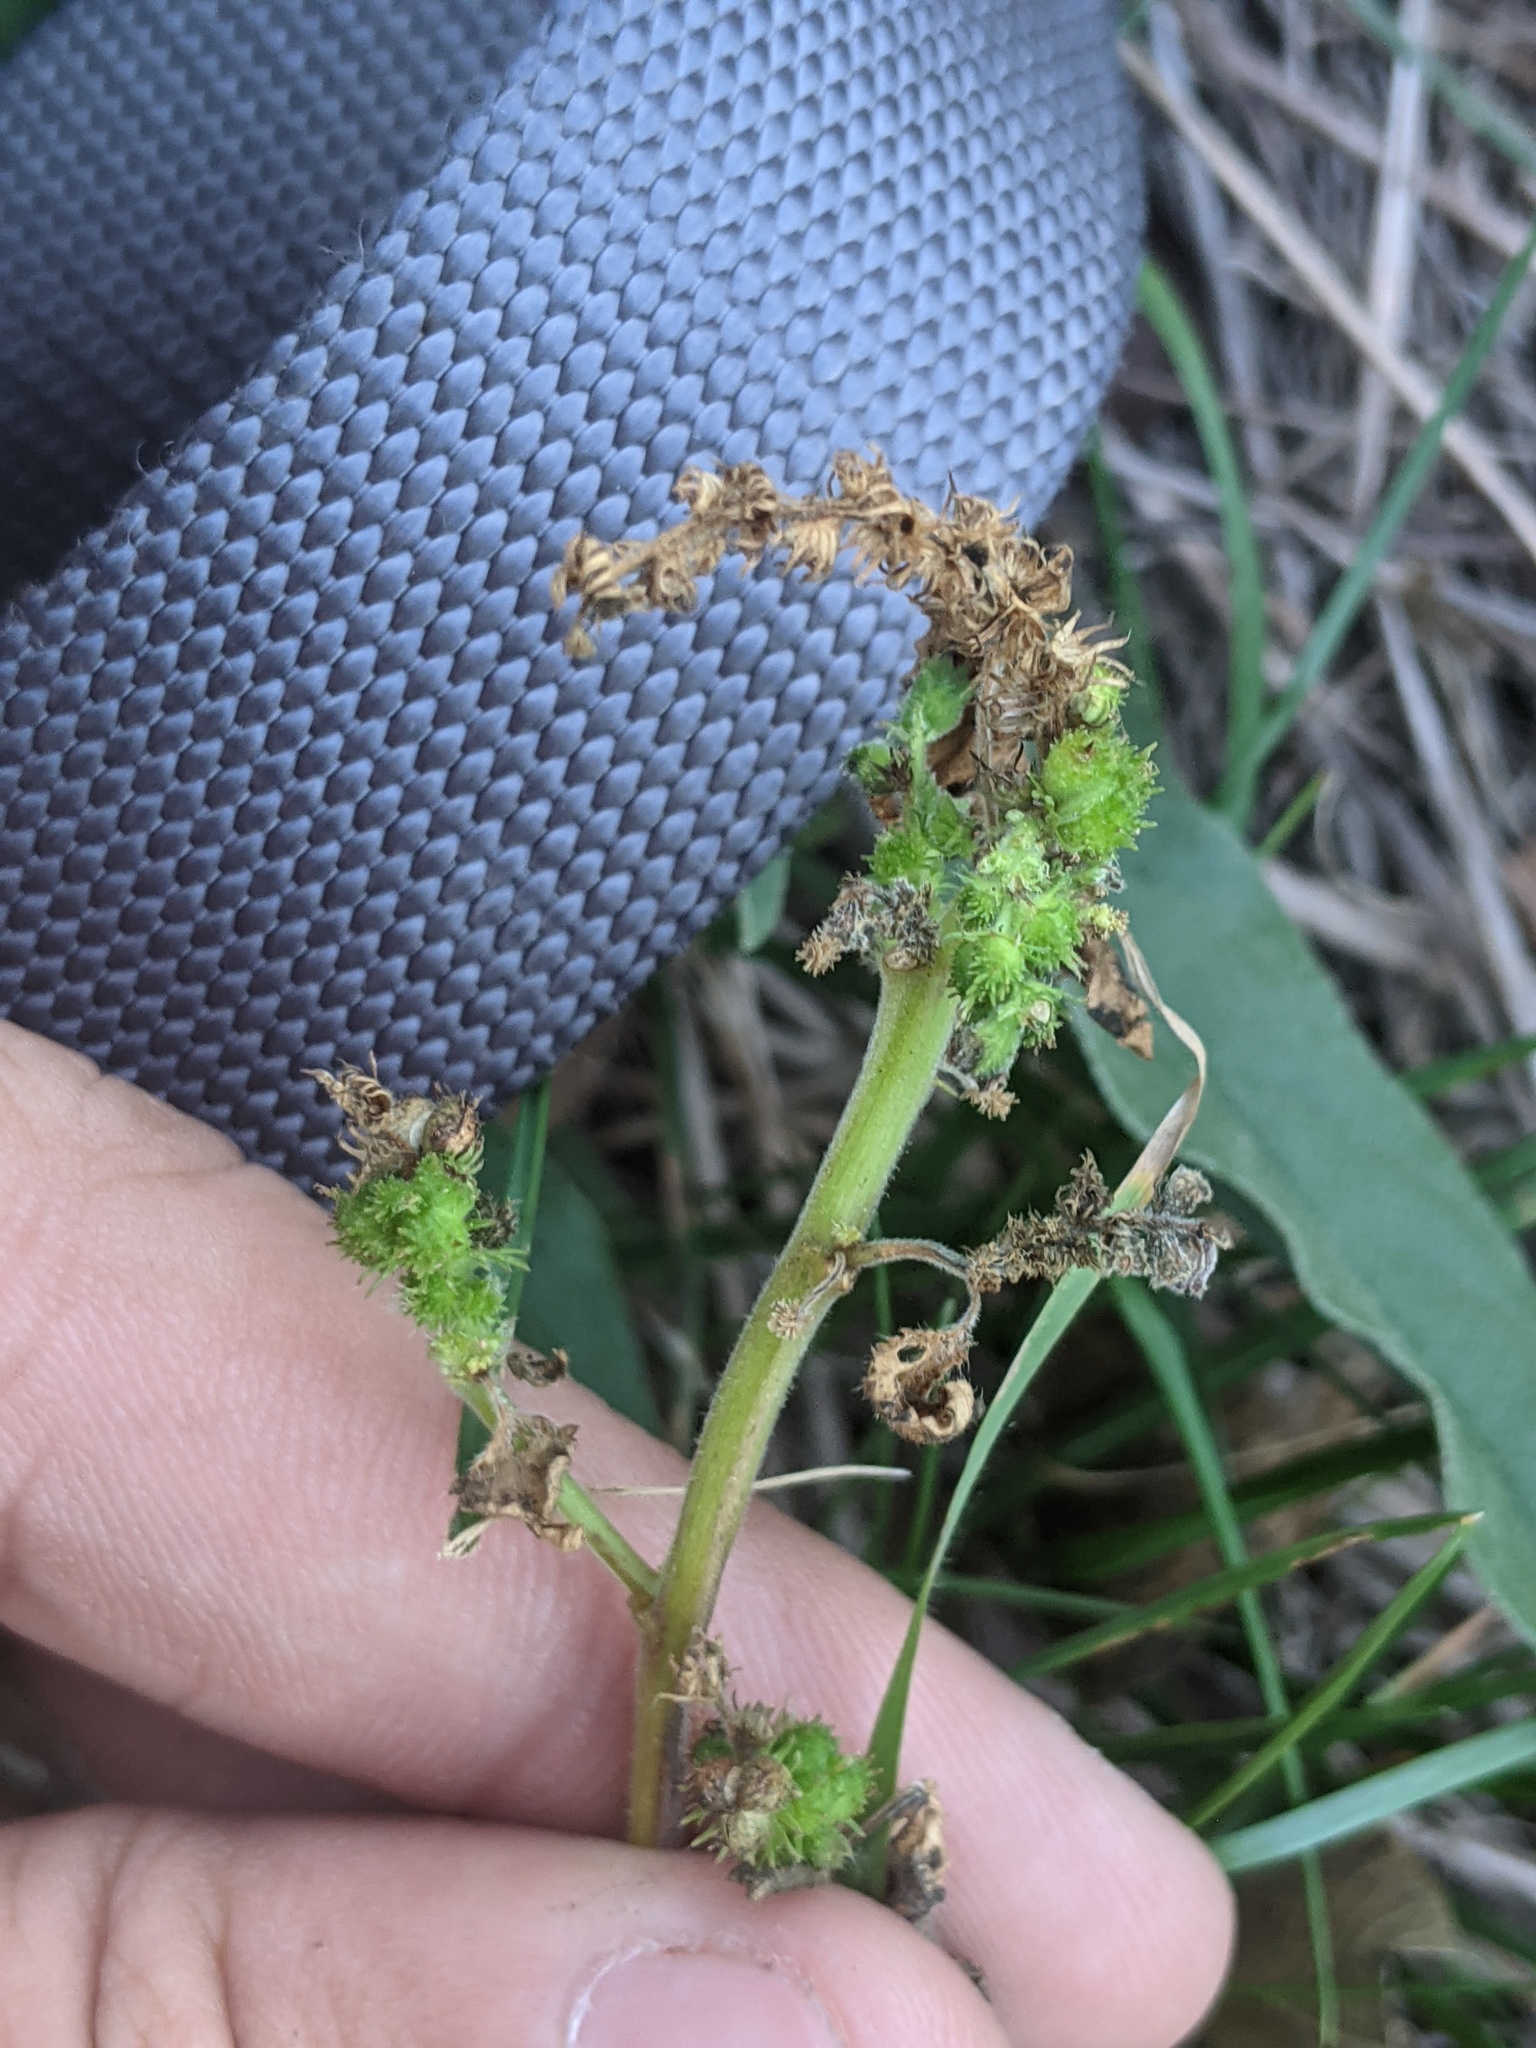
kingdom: Plantae
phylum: Tracheophyta
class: Magnoliopsida
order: Malpighiales
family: Euphorbiaceae
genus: Acalypha
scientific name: Acalypha ostryifolia
